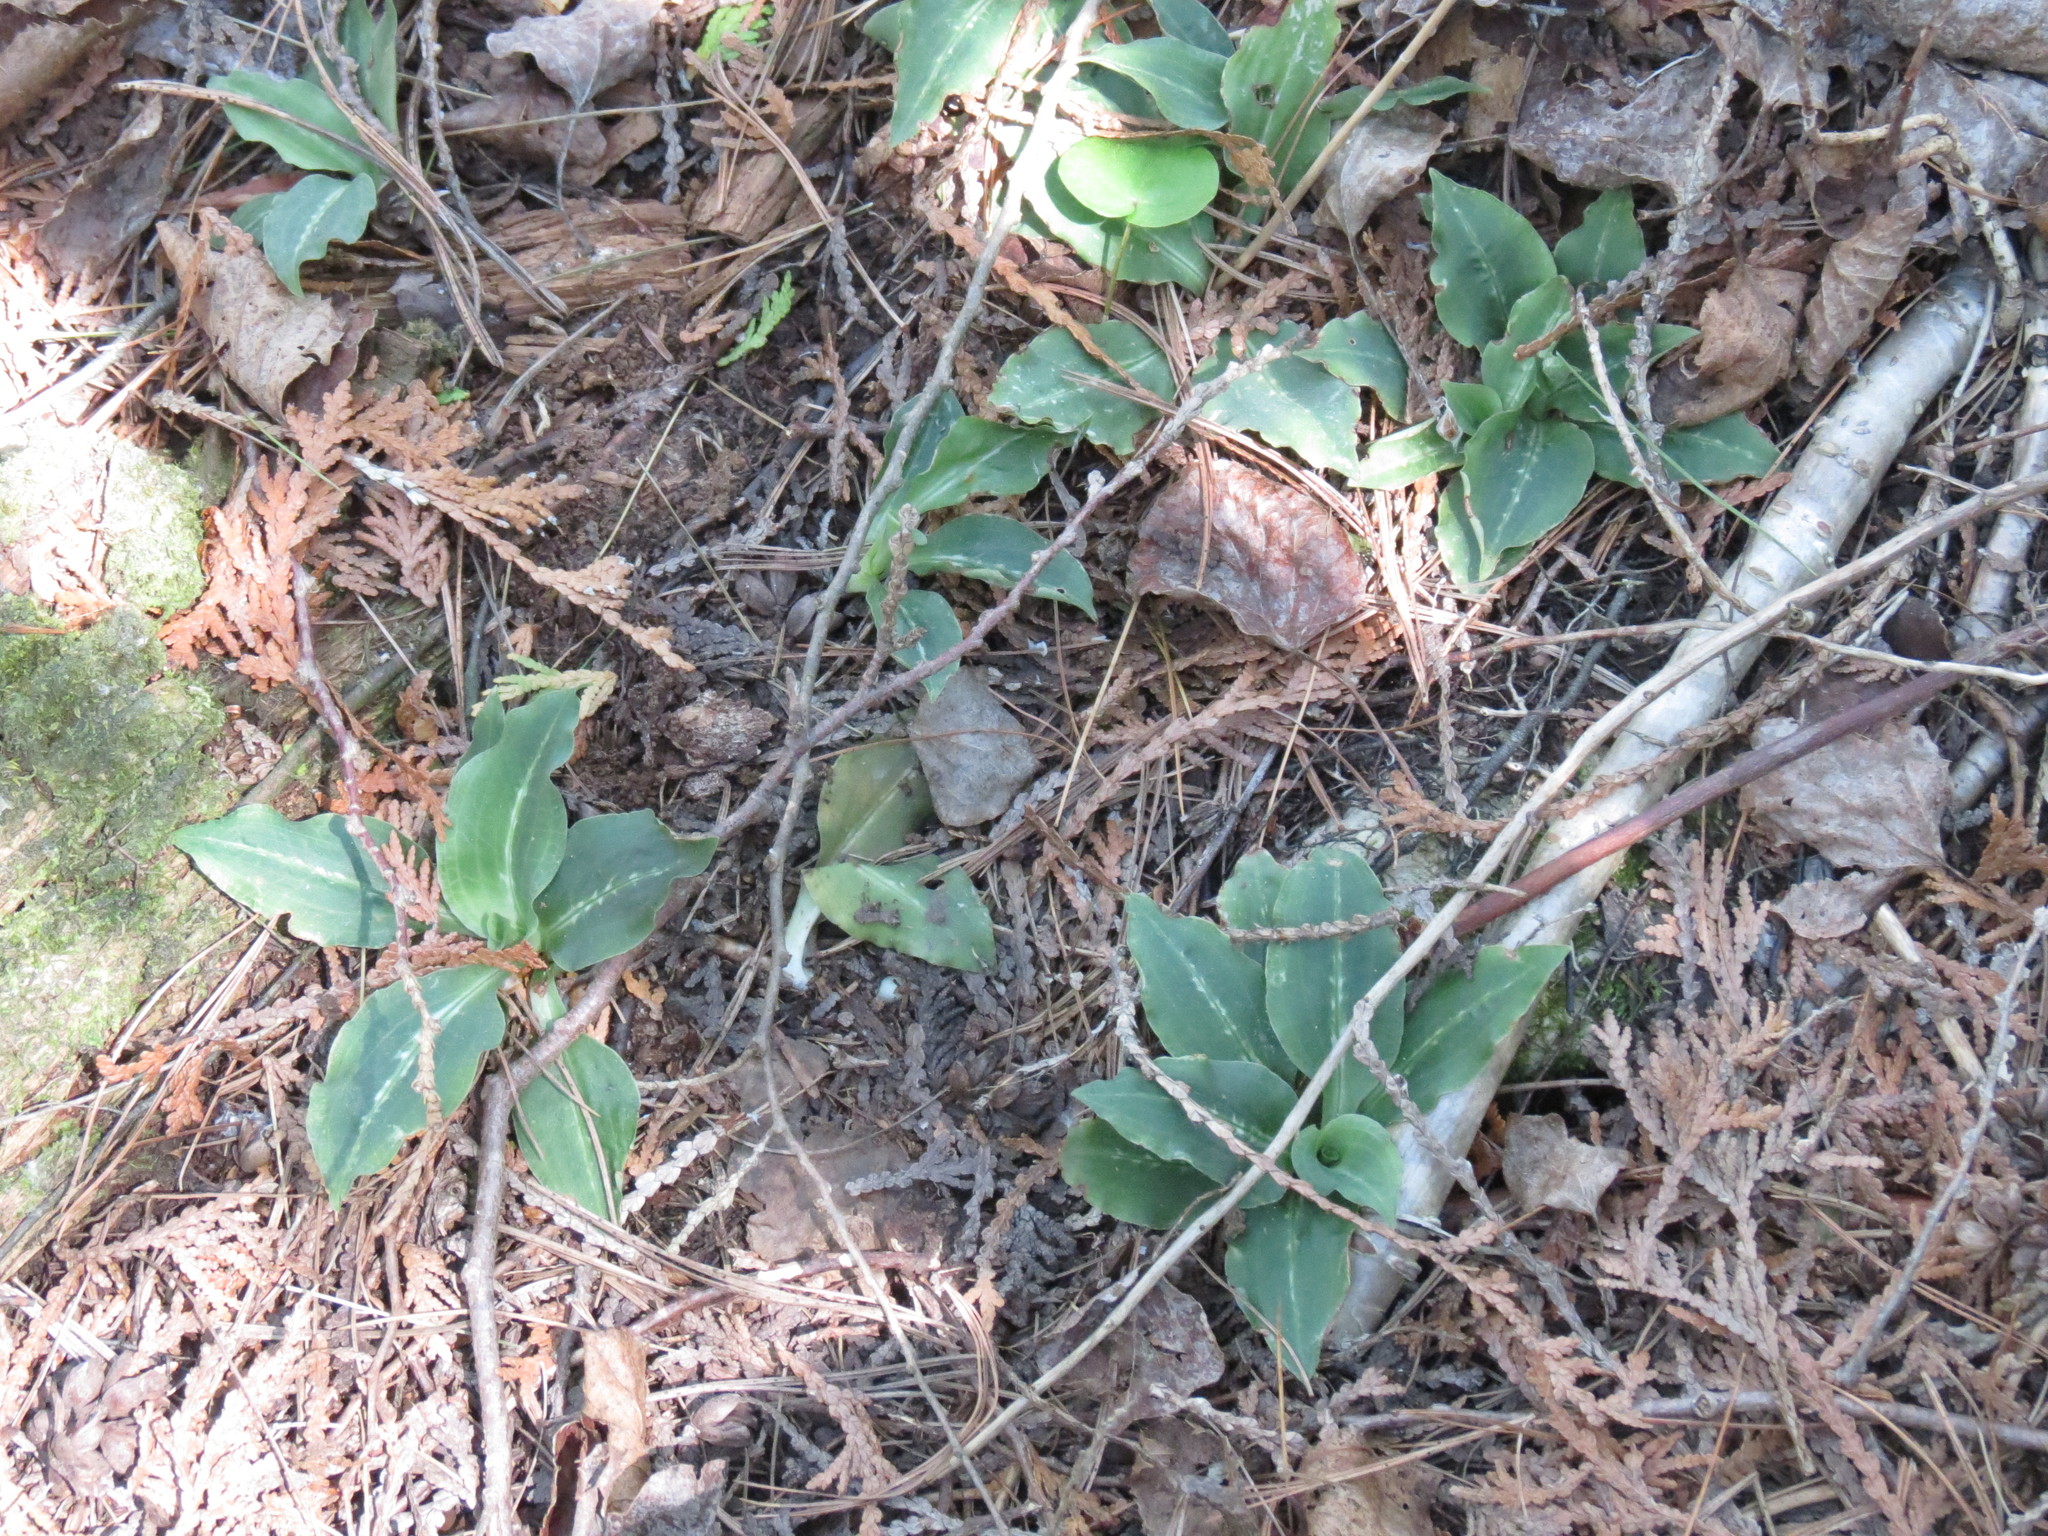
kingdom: Plantae
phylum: Tracheophyta
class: Liliopsida
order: Asparagales
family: Orchidaceae
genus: Goodyera
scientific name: Goodyera oblongifolia
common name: Giant rattlesnake-plantain
